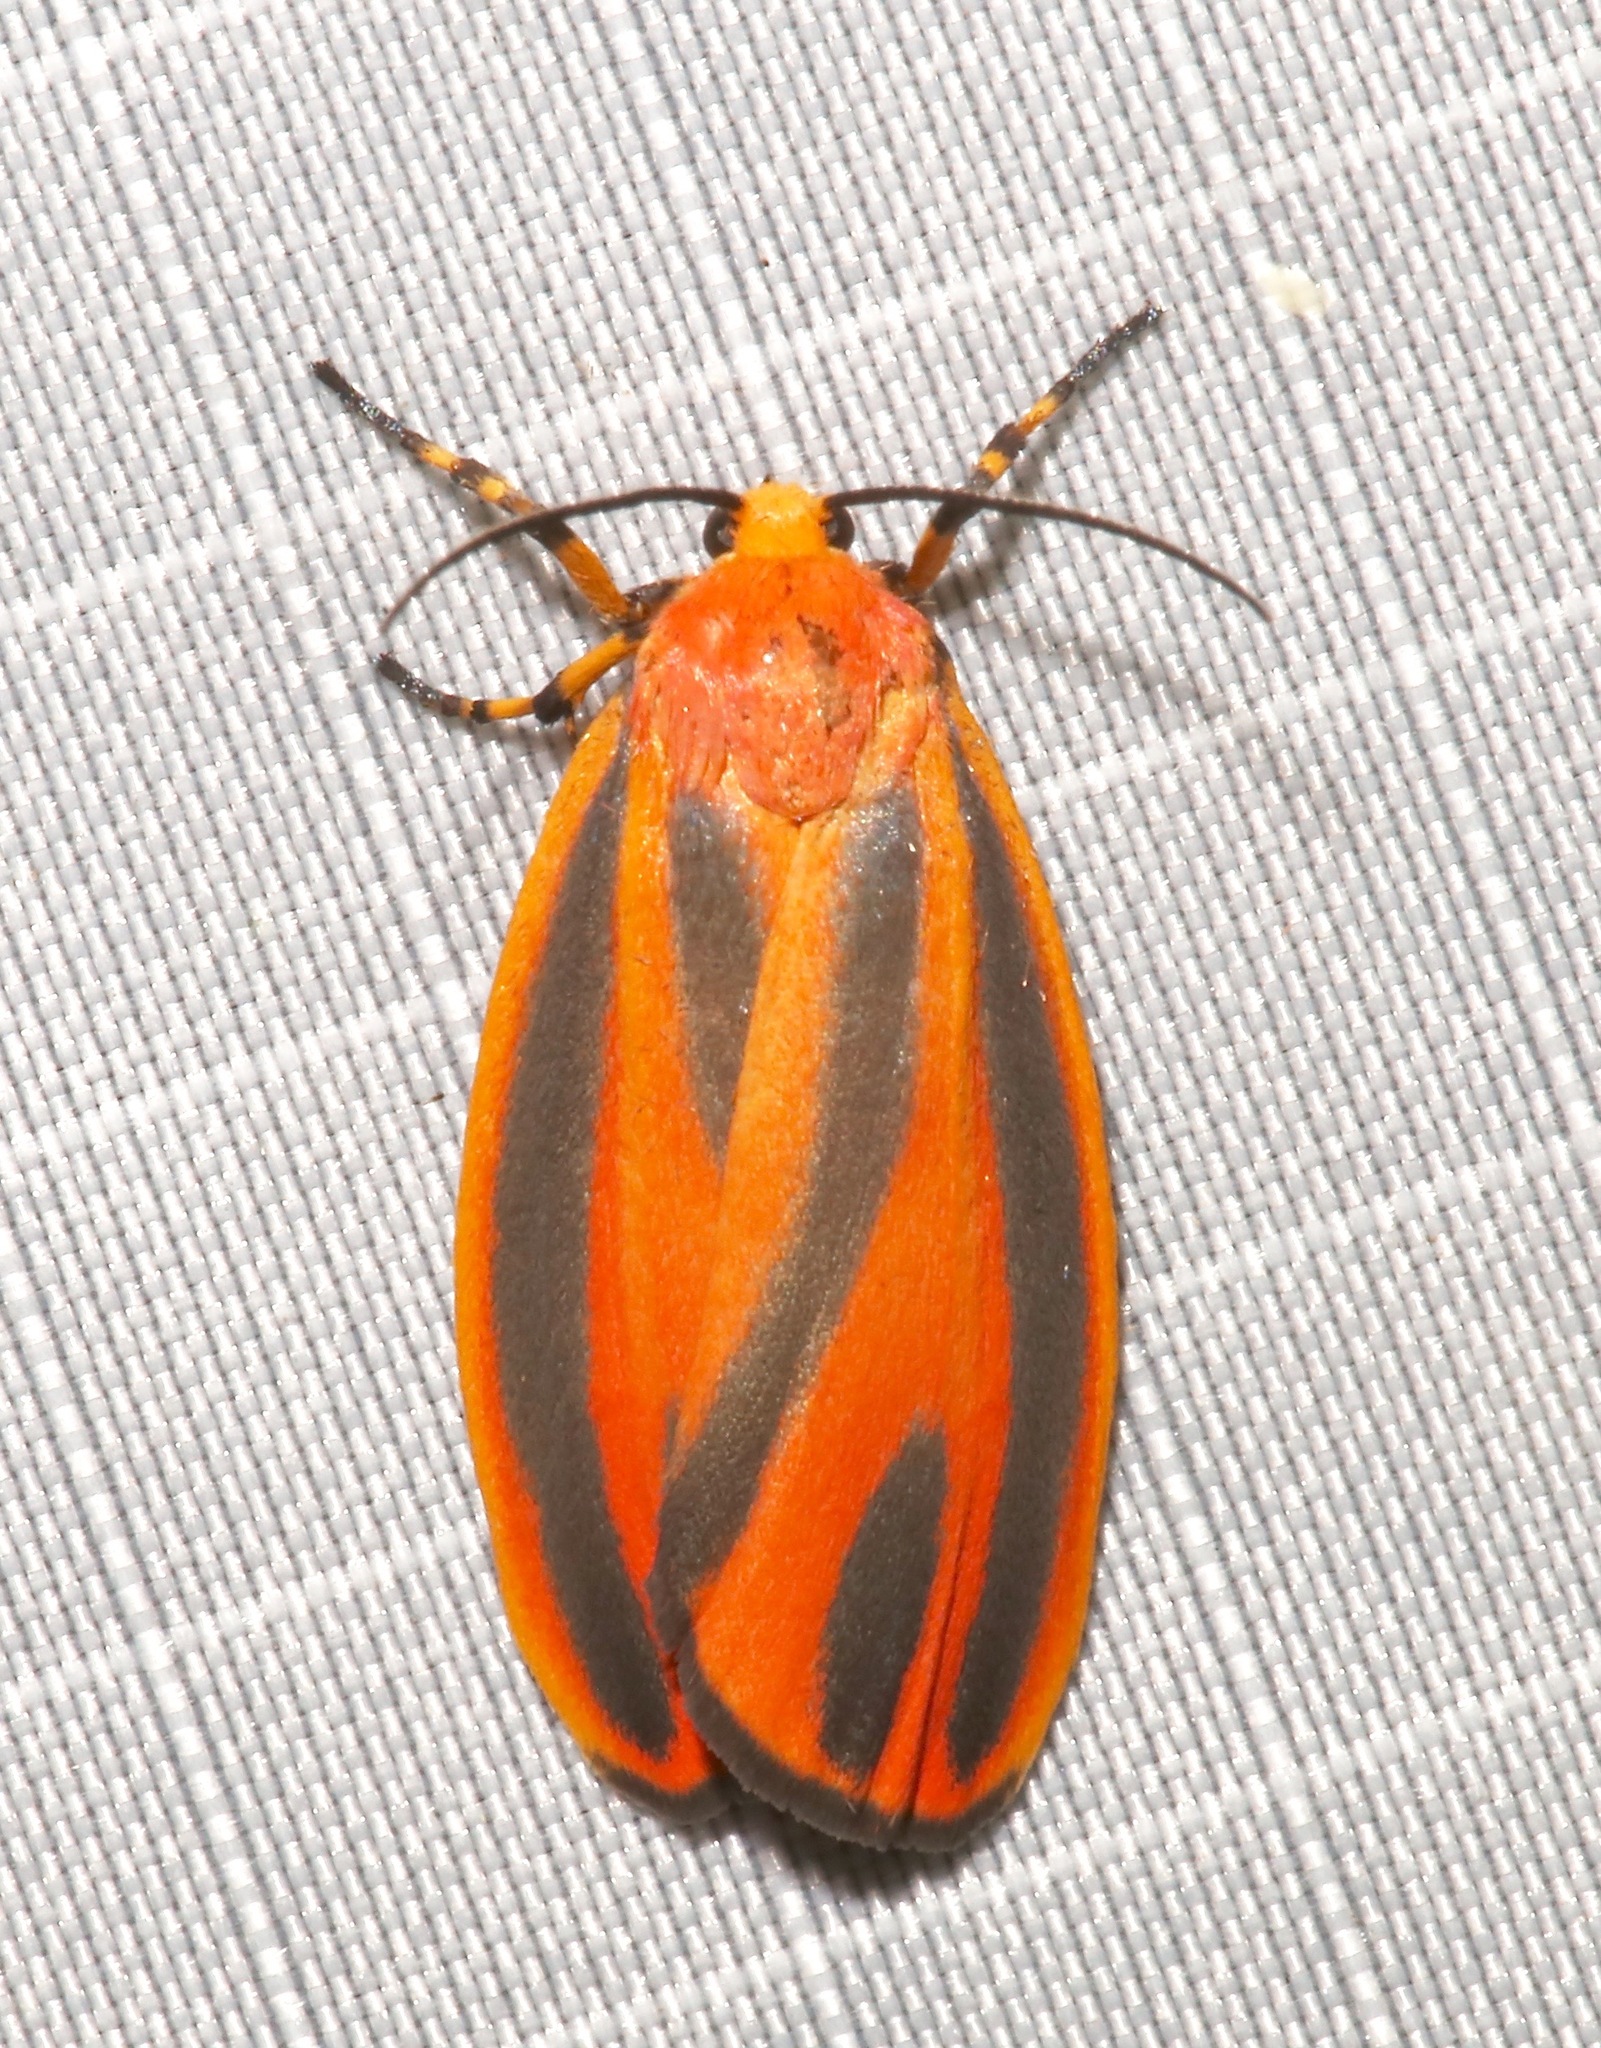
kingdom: Animalia
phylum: Arthropoda
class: Insecta
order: Lepidoptera
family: Erebidae
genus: Hypoprepia
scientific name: Hypoprepia miniata
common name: Scarlet-winged lichen moth
